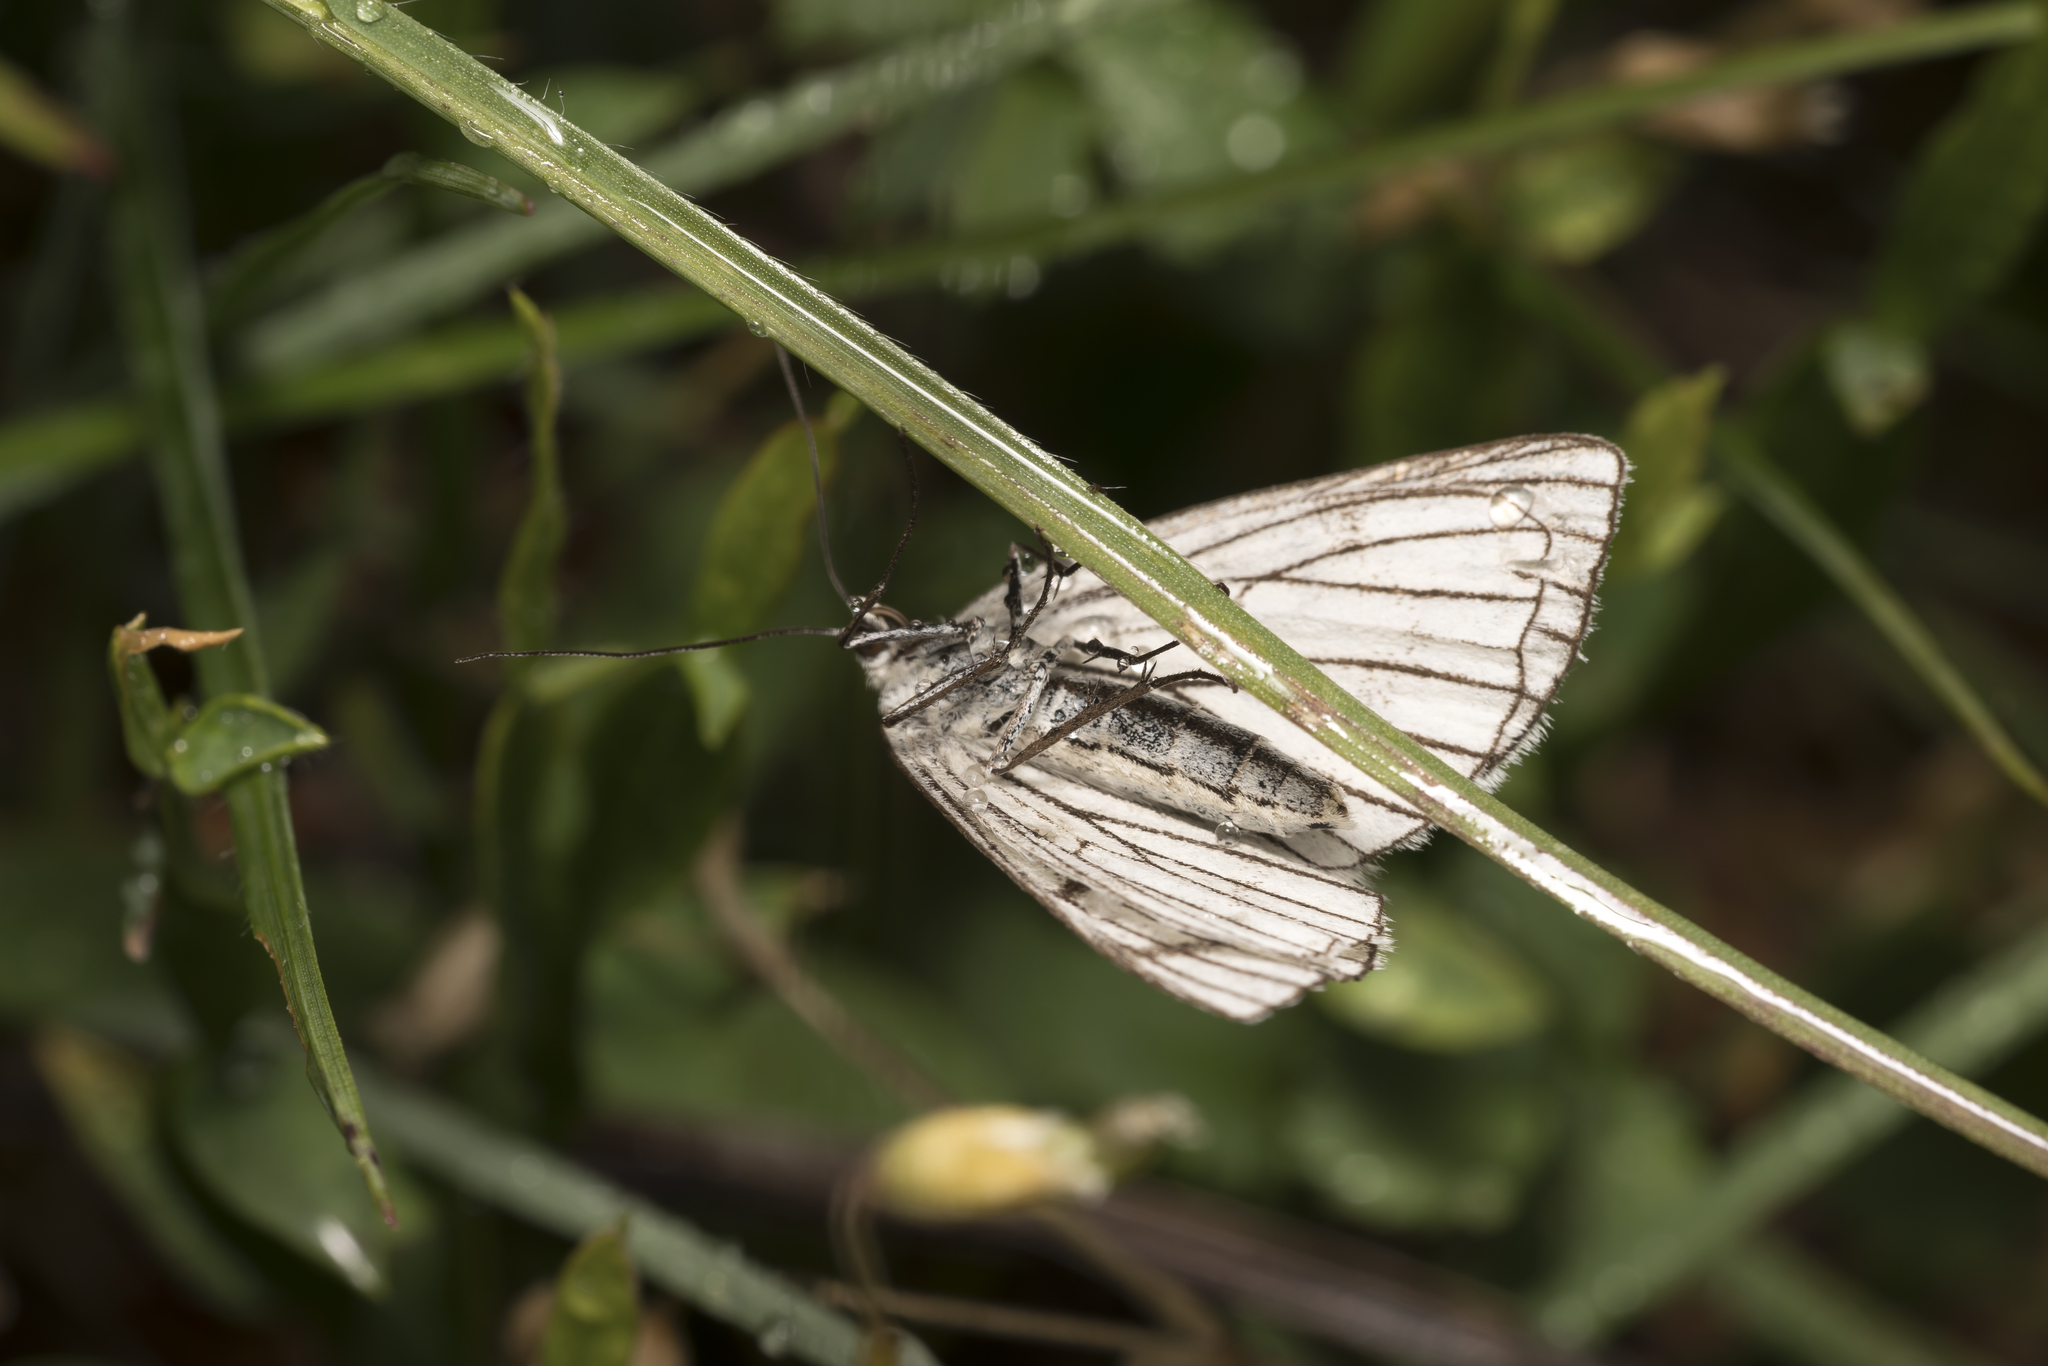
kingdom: Animalia
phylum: Arthropoda
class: Insecta
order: Lepidoptera
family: Geometridae
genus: Siona
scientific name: Siona lineata
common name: Black-veined moth
